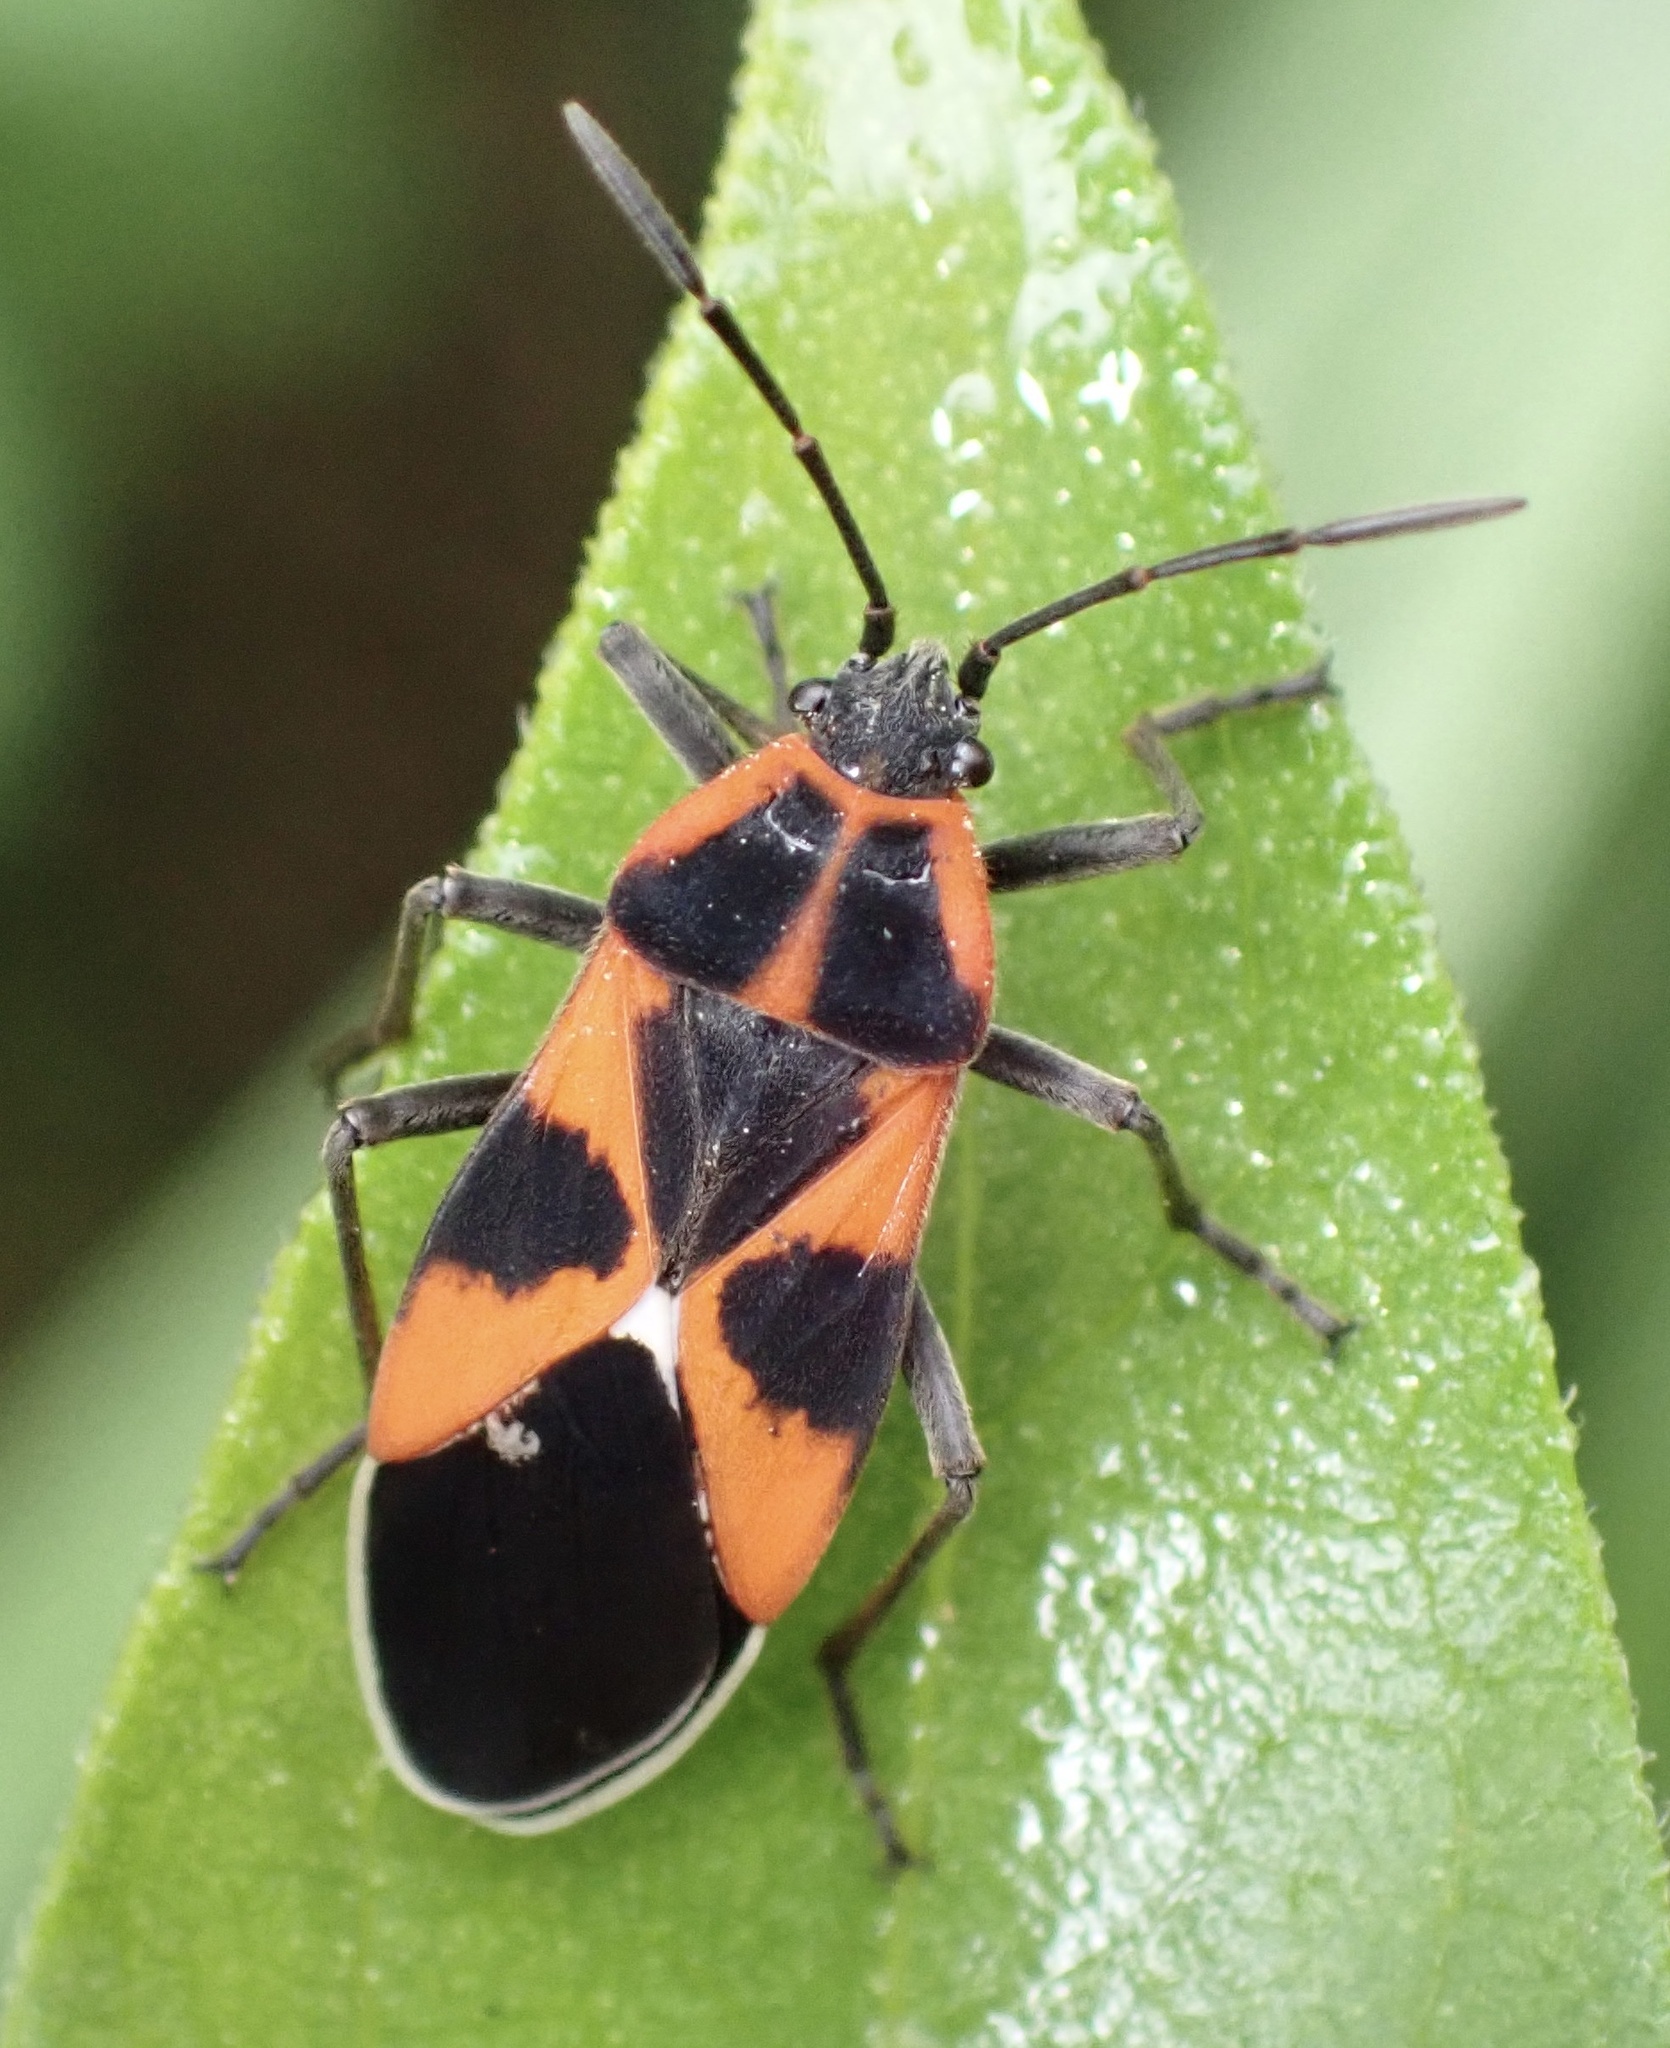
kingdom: Animalia
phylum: Arthropoda
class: Insecta
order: Hemiptera
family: Lygaeidae
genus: Tropidothorax
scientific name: Tropidothorax leucopterus
